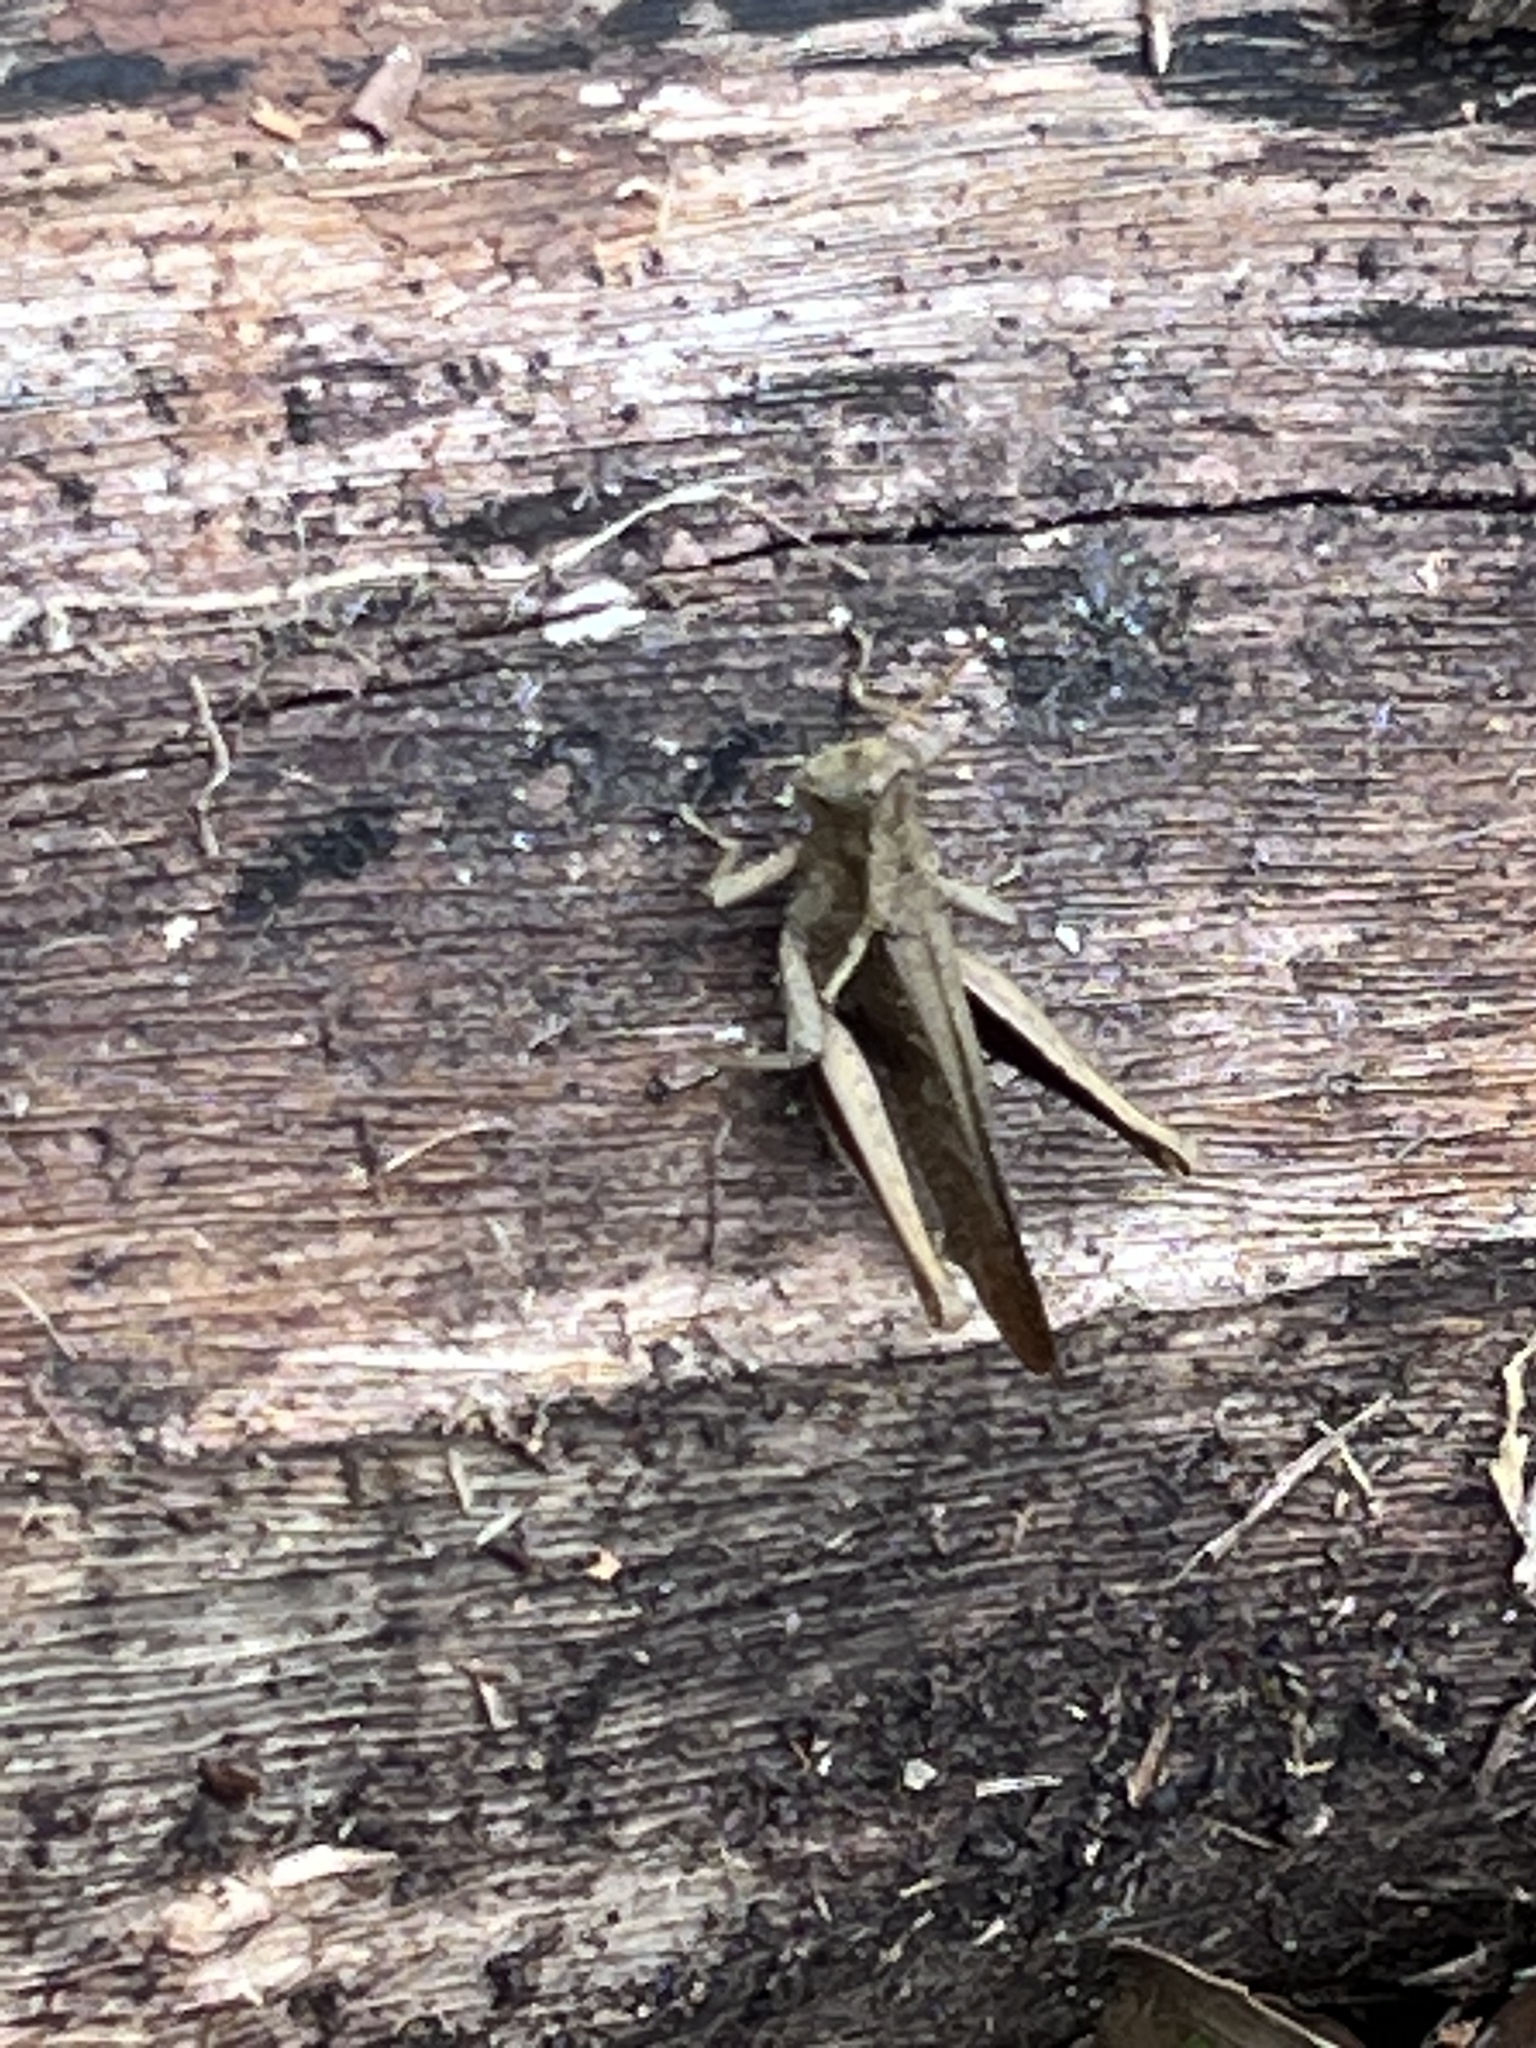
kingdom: Animalia
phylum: Arthropoda
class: Insecta
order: Orthoptera
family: Acrididae
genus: Abracris
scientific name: Abracris flavolineata
